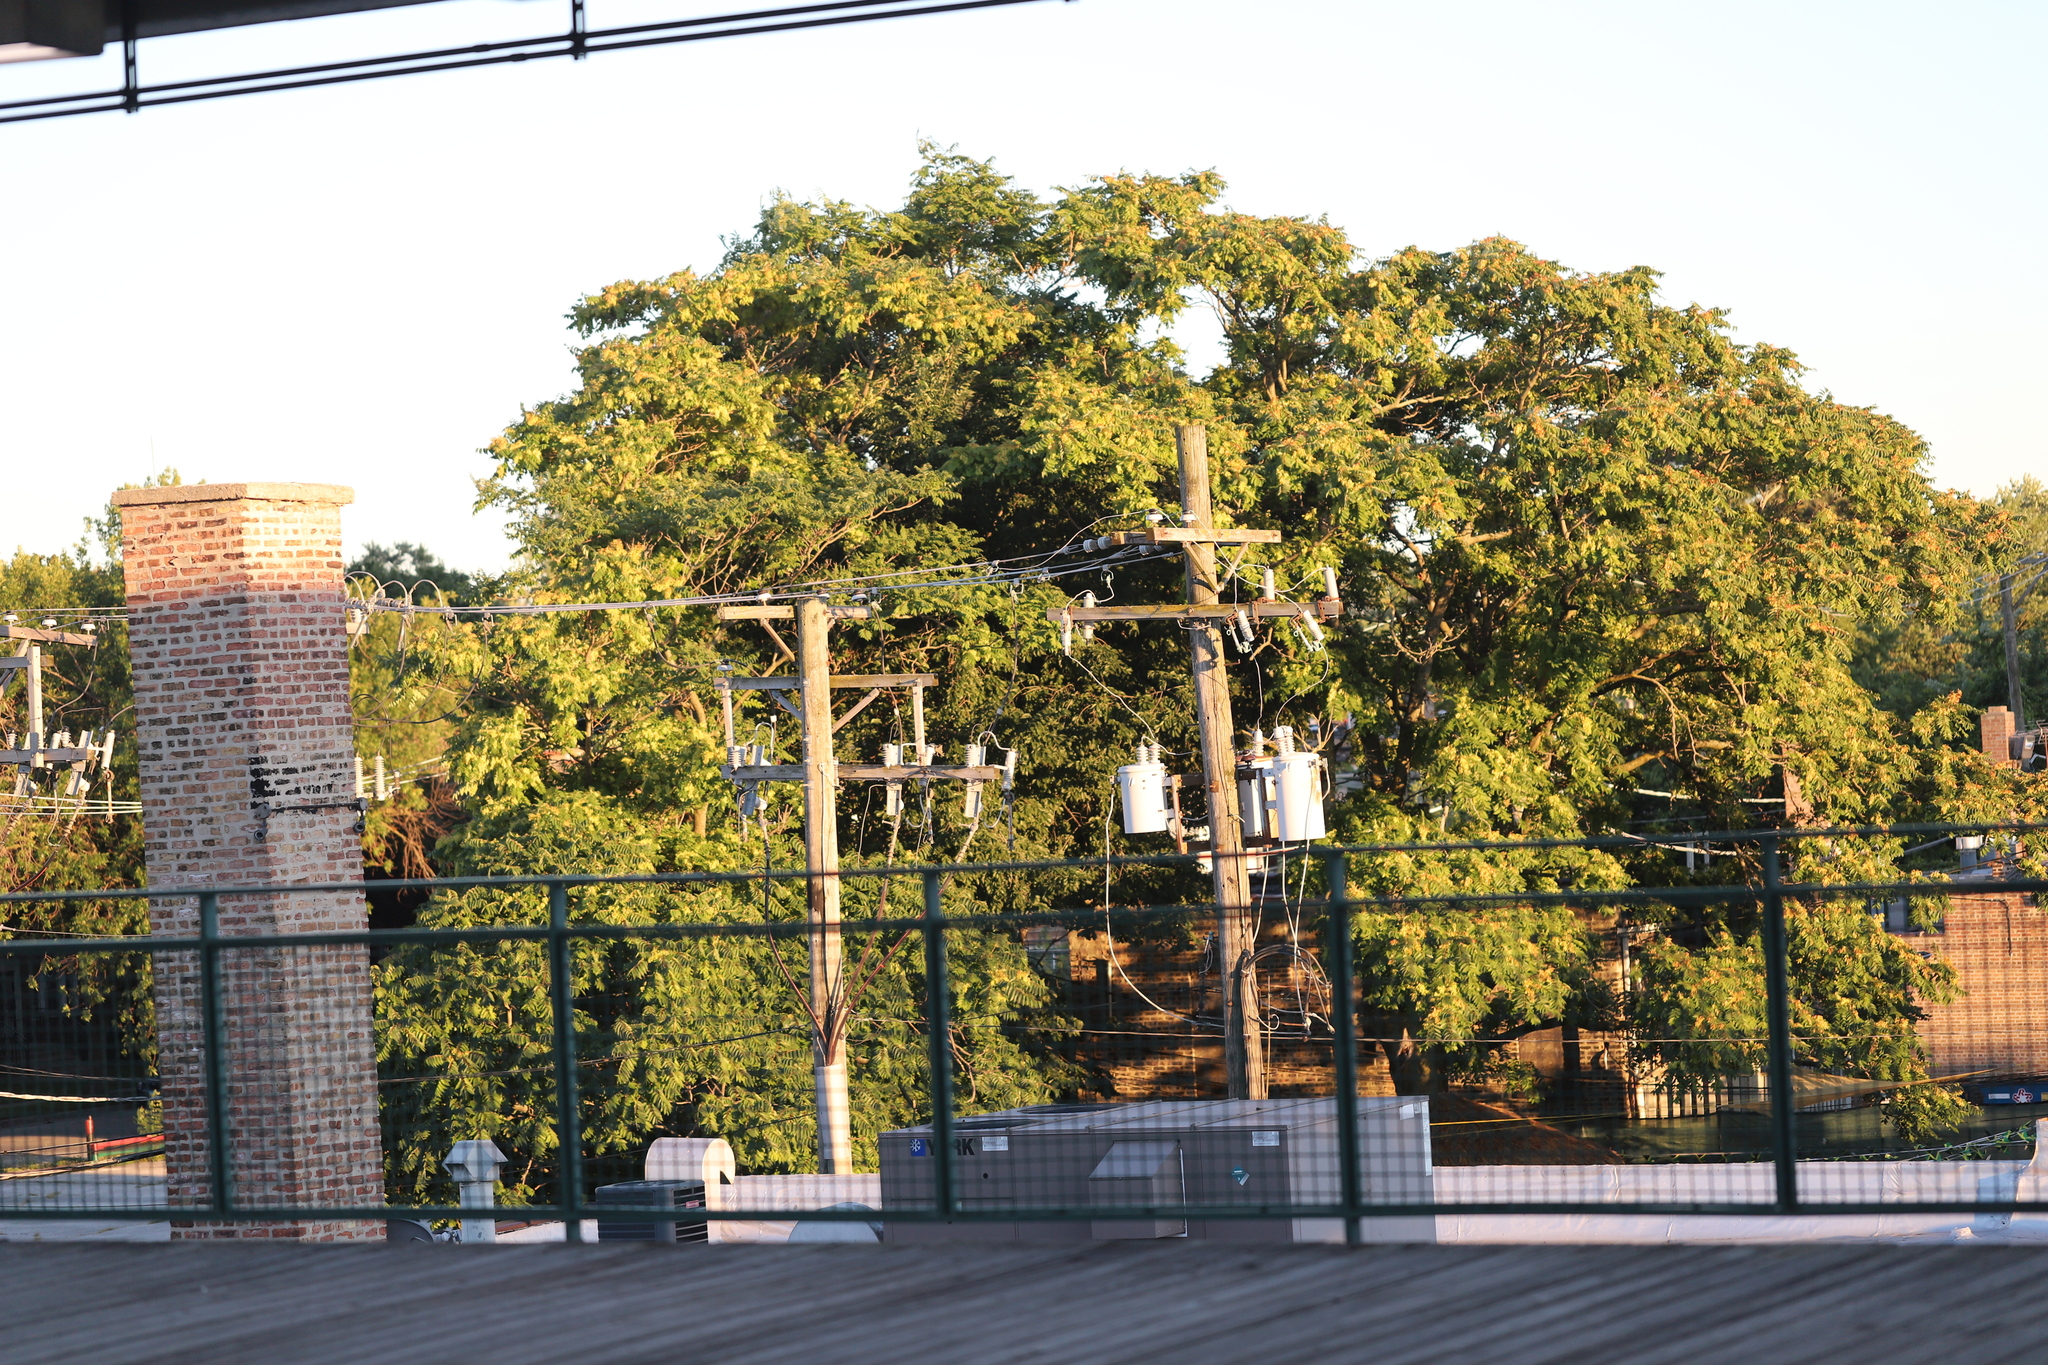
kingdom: Plantae
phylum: Tracheophyta
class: Magnoliopsida
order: Sapindales
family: Simaroubaceae
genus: Ailanthus
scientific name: Ailanthus altissima
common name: Tree-of-heaven
